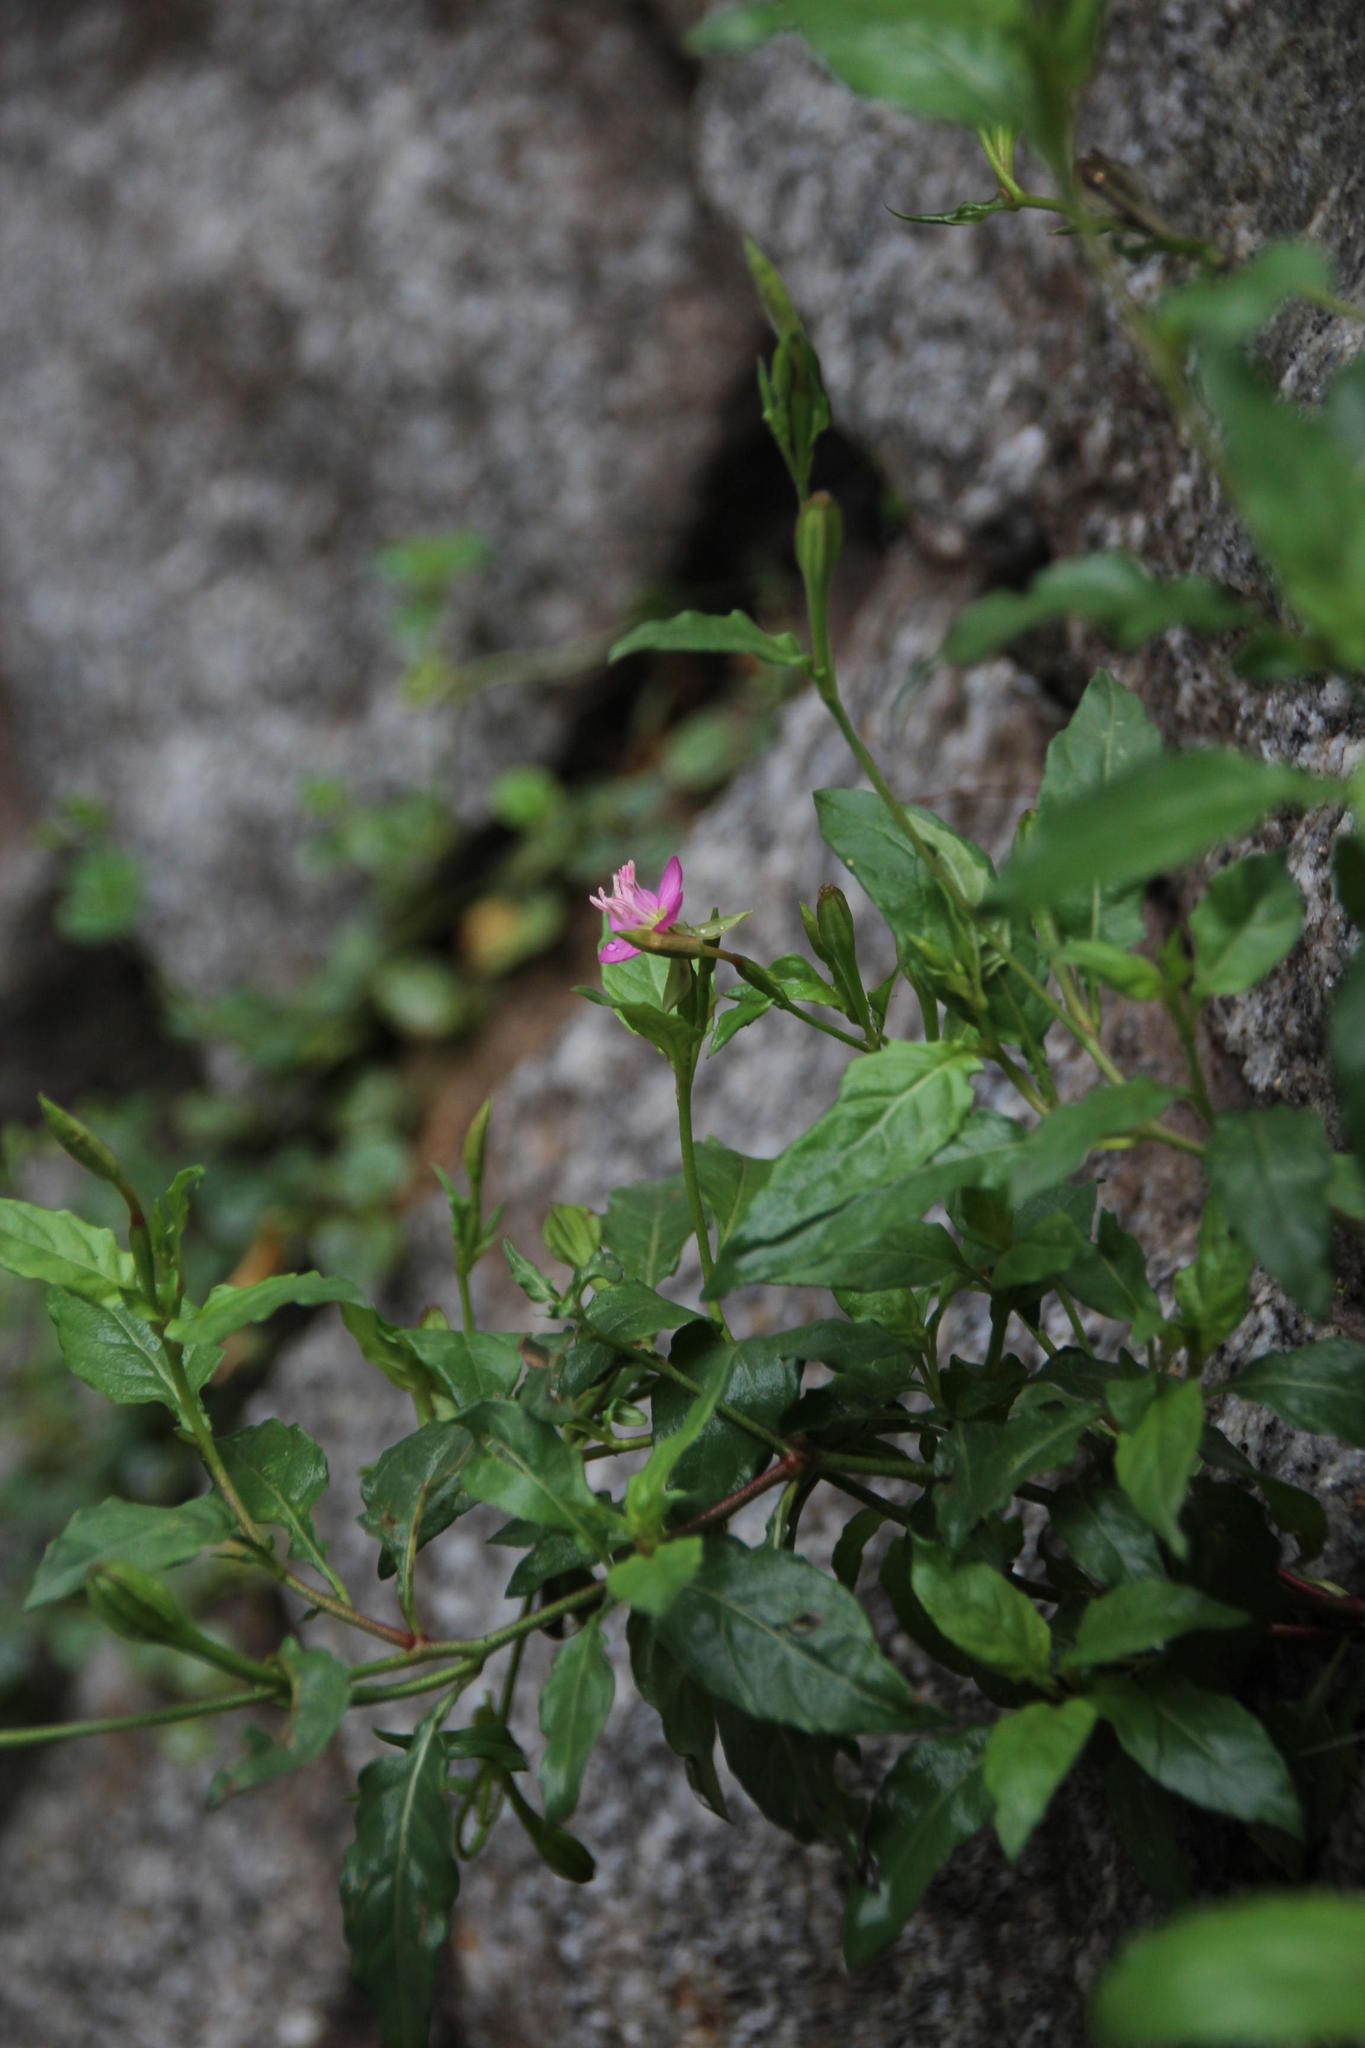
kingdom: Plantae
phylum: Tracheophyta
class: Magnoliopsida
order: Myrtales
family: Onagraceae
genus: Oenothera
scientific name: Oenothera rosea
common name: Rosy evening-primrose
